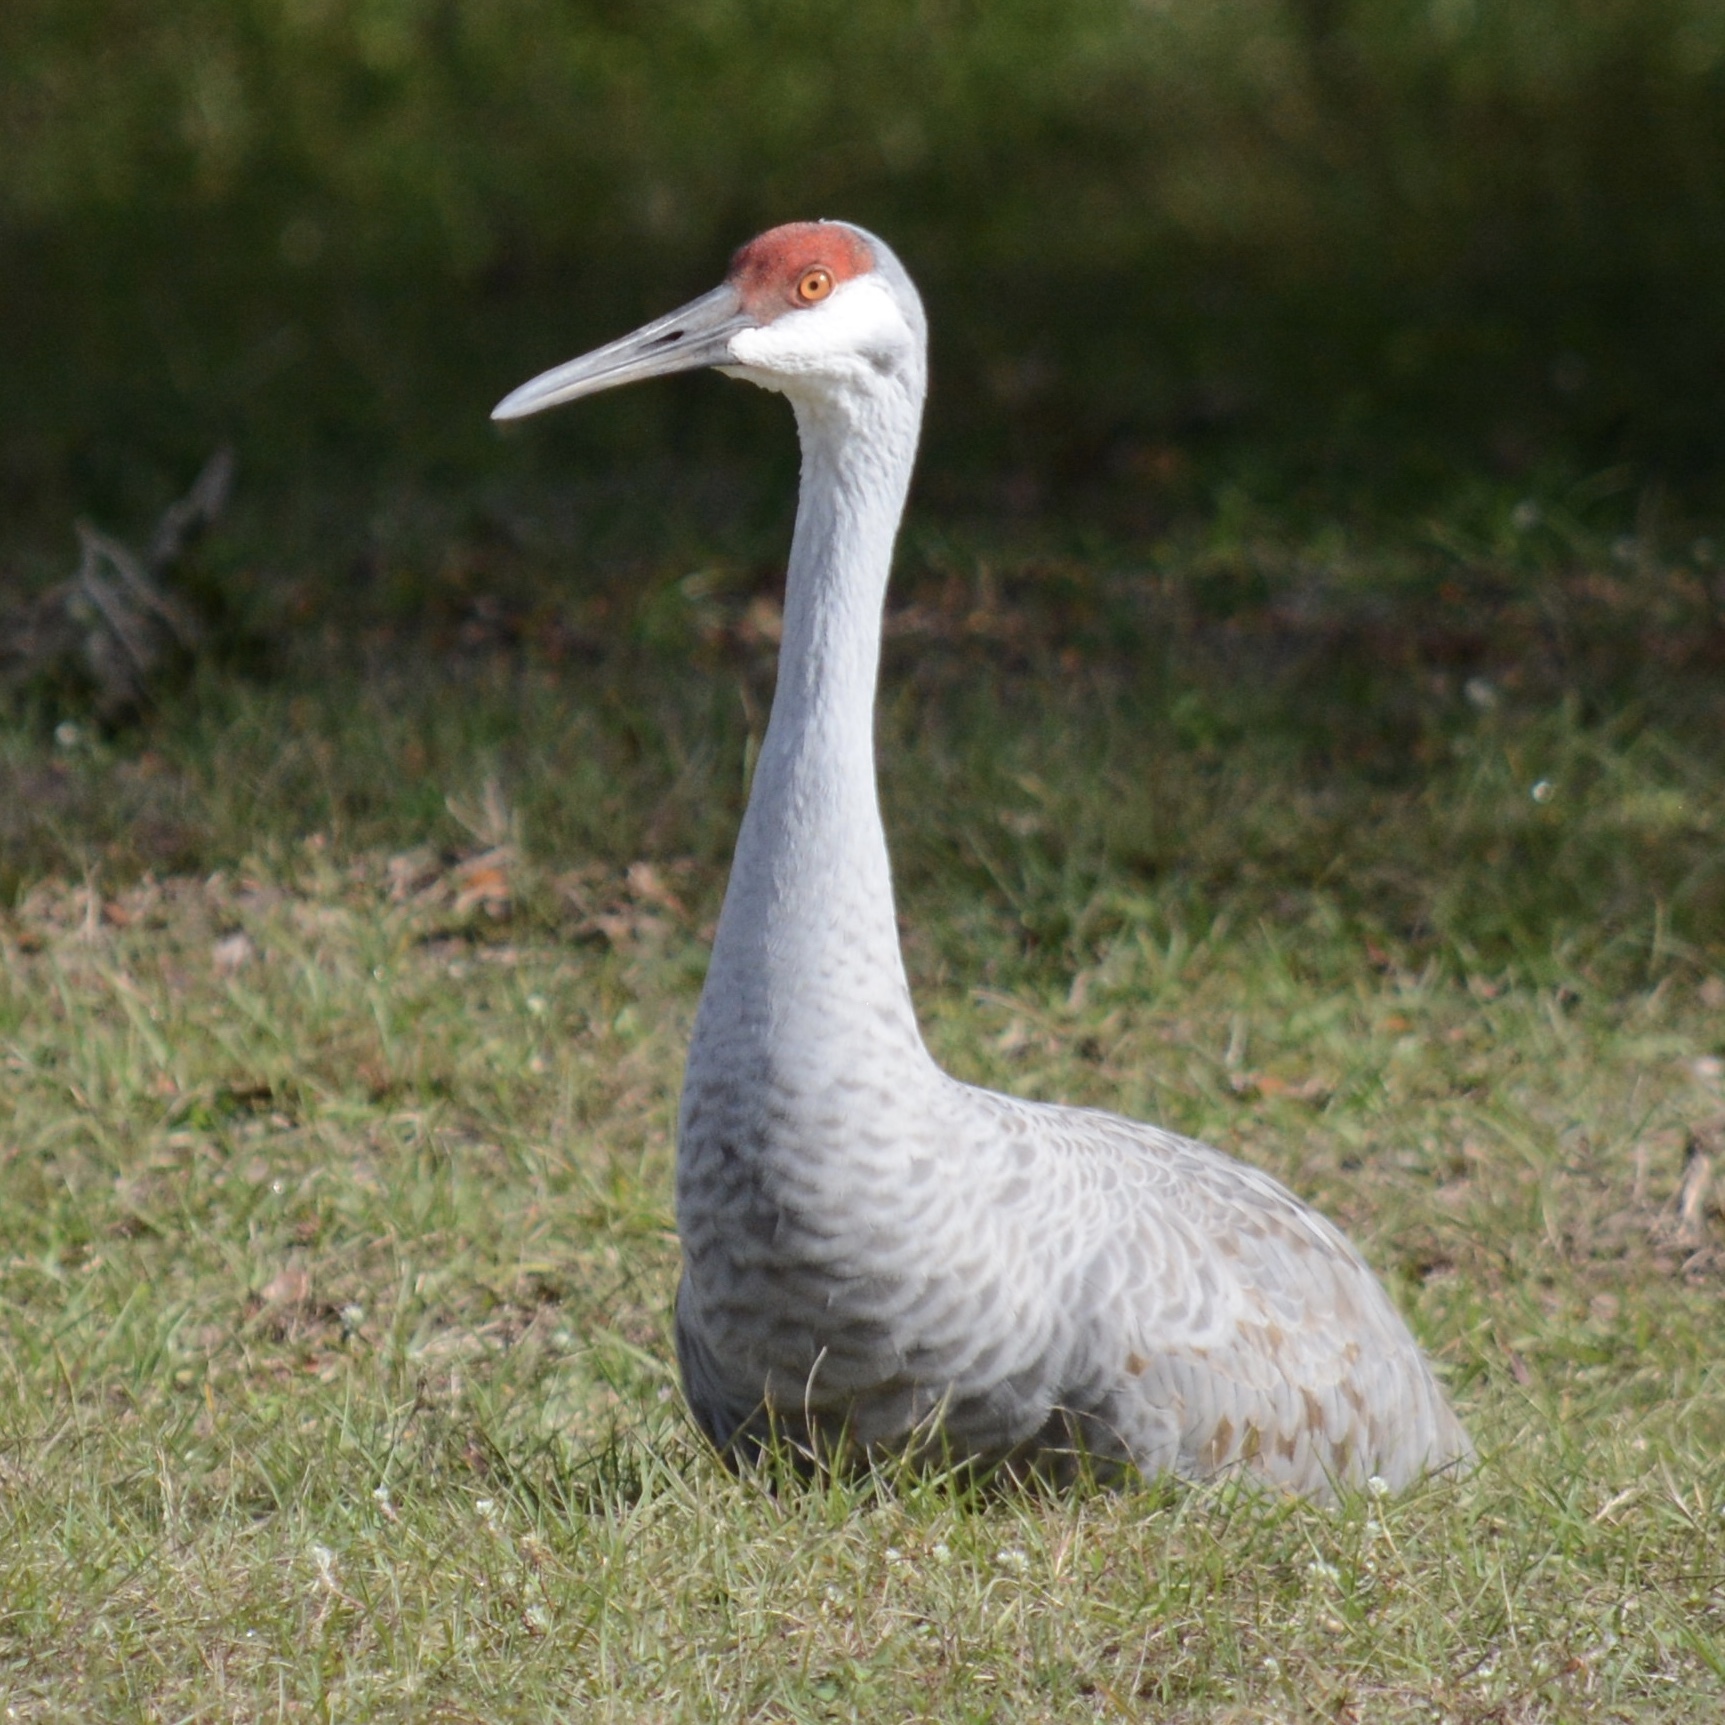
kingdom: Animalia
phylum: Chordata
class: Aves
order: Gruiformes
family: Gruidae
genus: Grus
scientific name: Grus canadensis
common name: Sandhill crane
